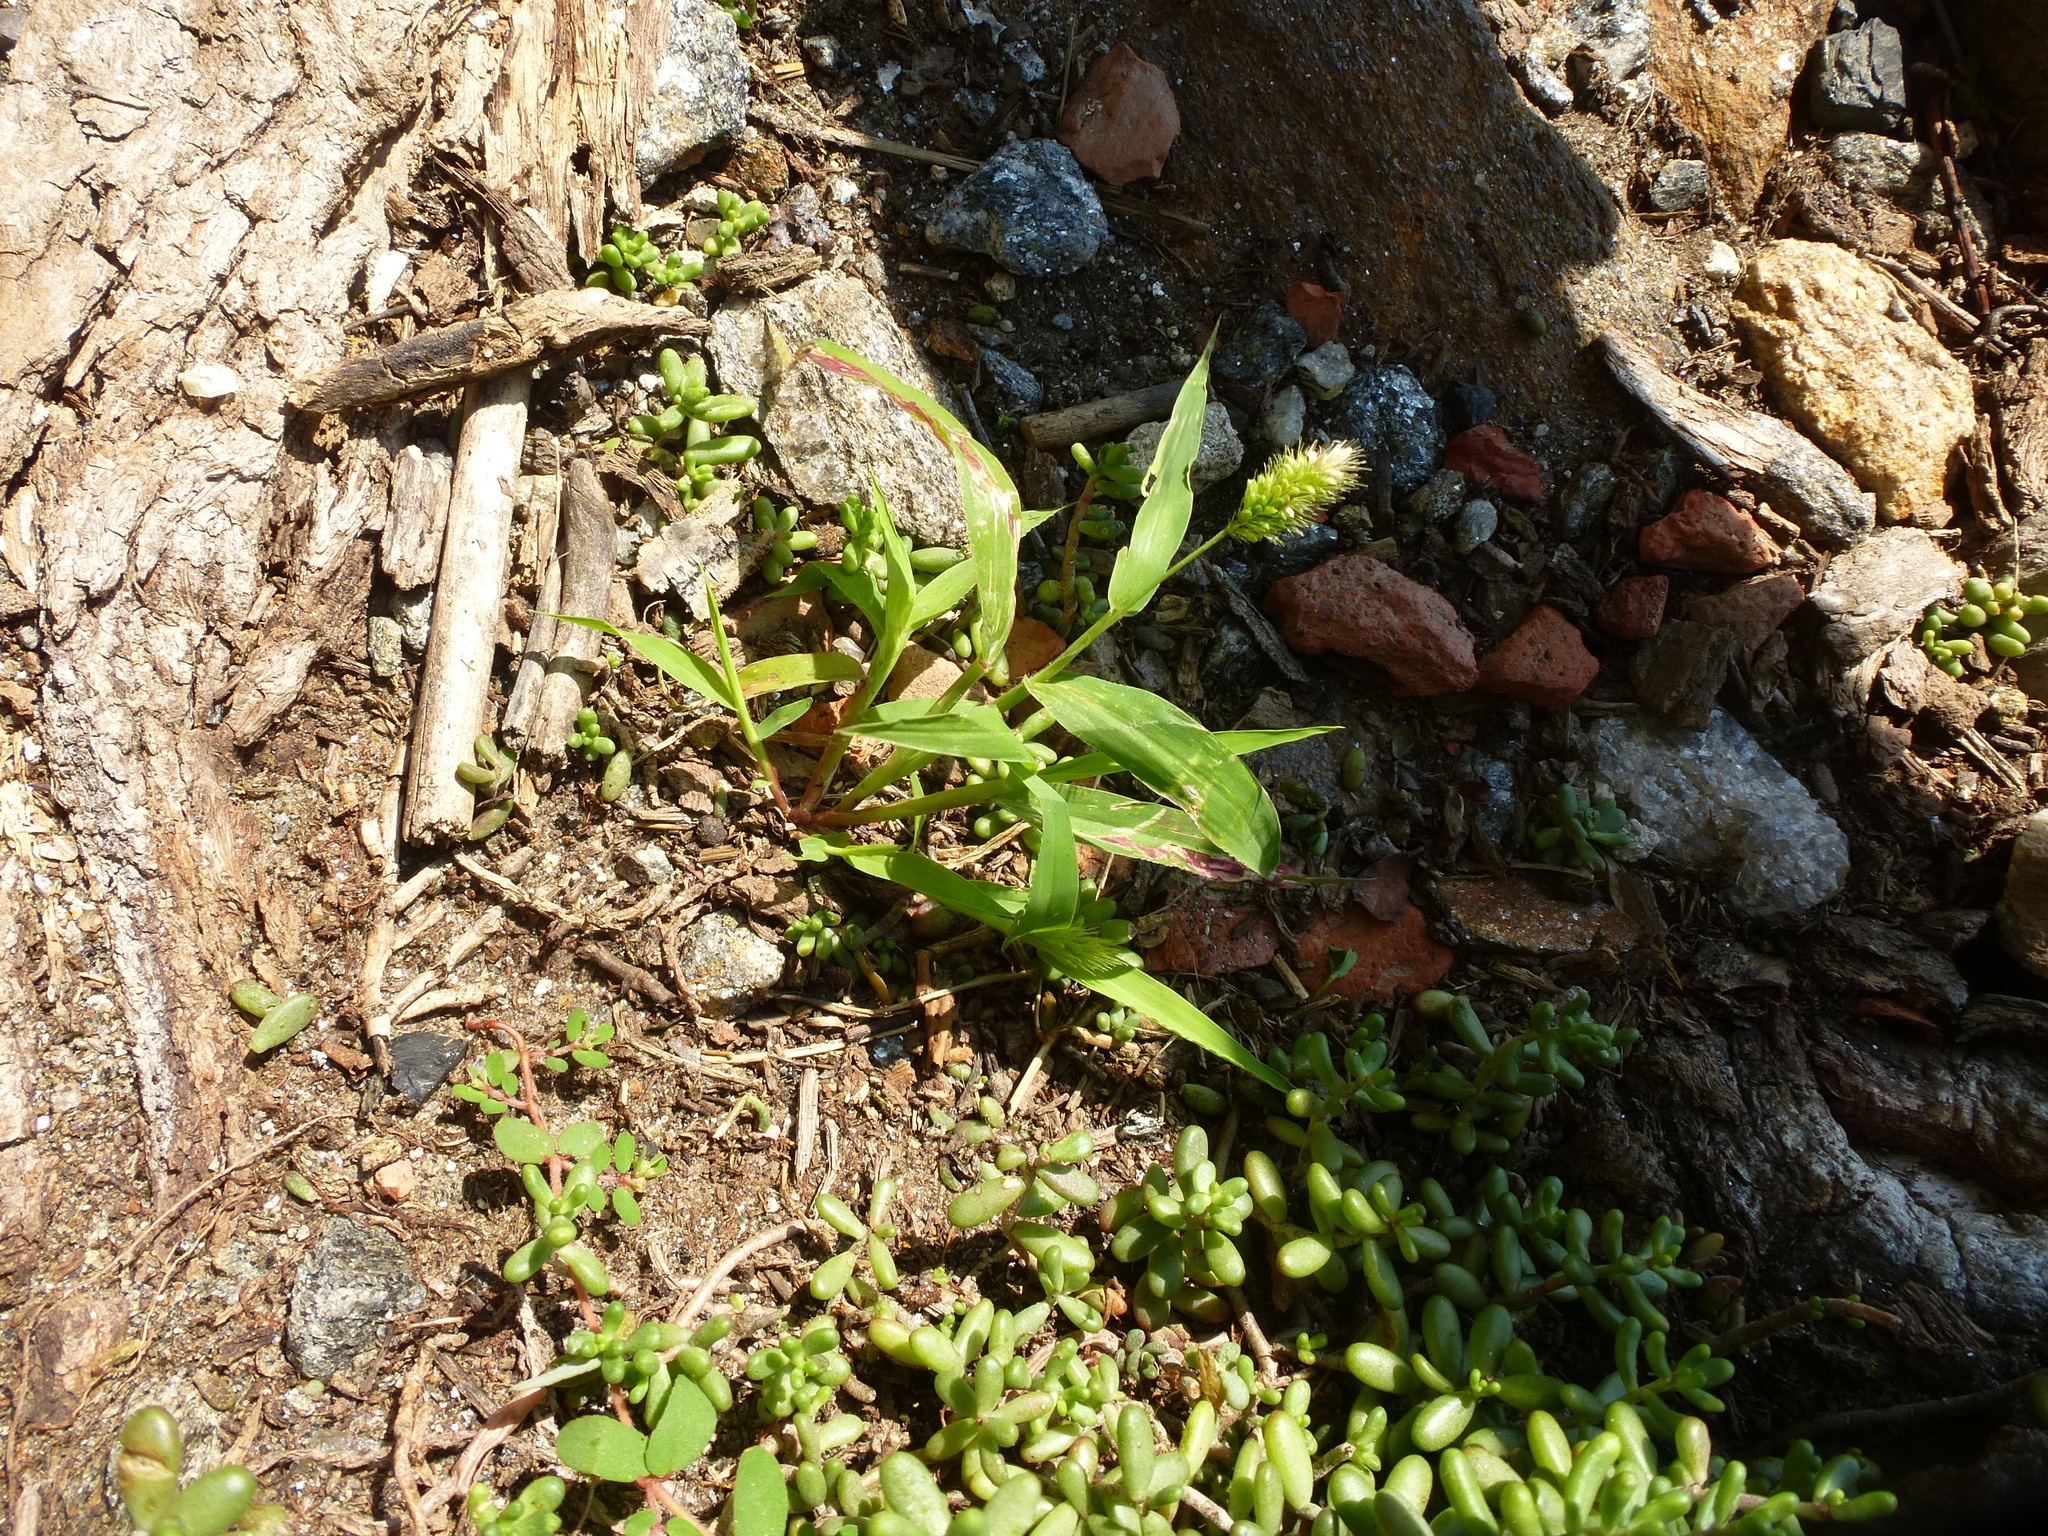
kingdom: Plantae
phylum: Tracheophyta
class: Magnoliopsida
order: Saxifragales
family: Crassulaceae
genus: Sedum
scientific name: Sedum album
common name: White stonecrop
